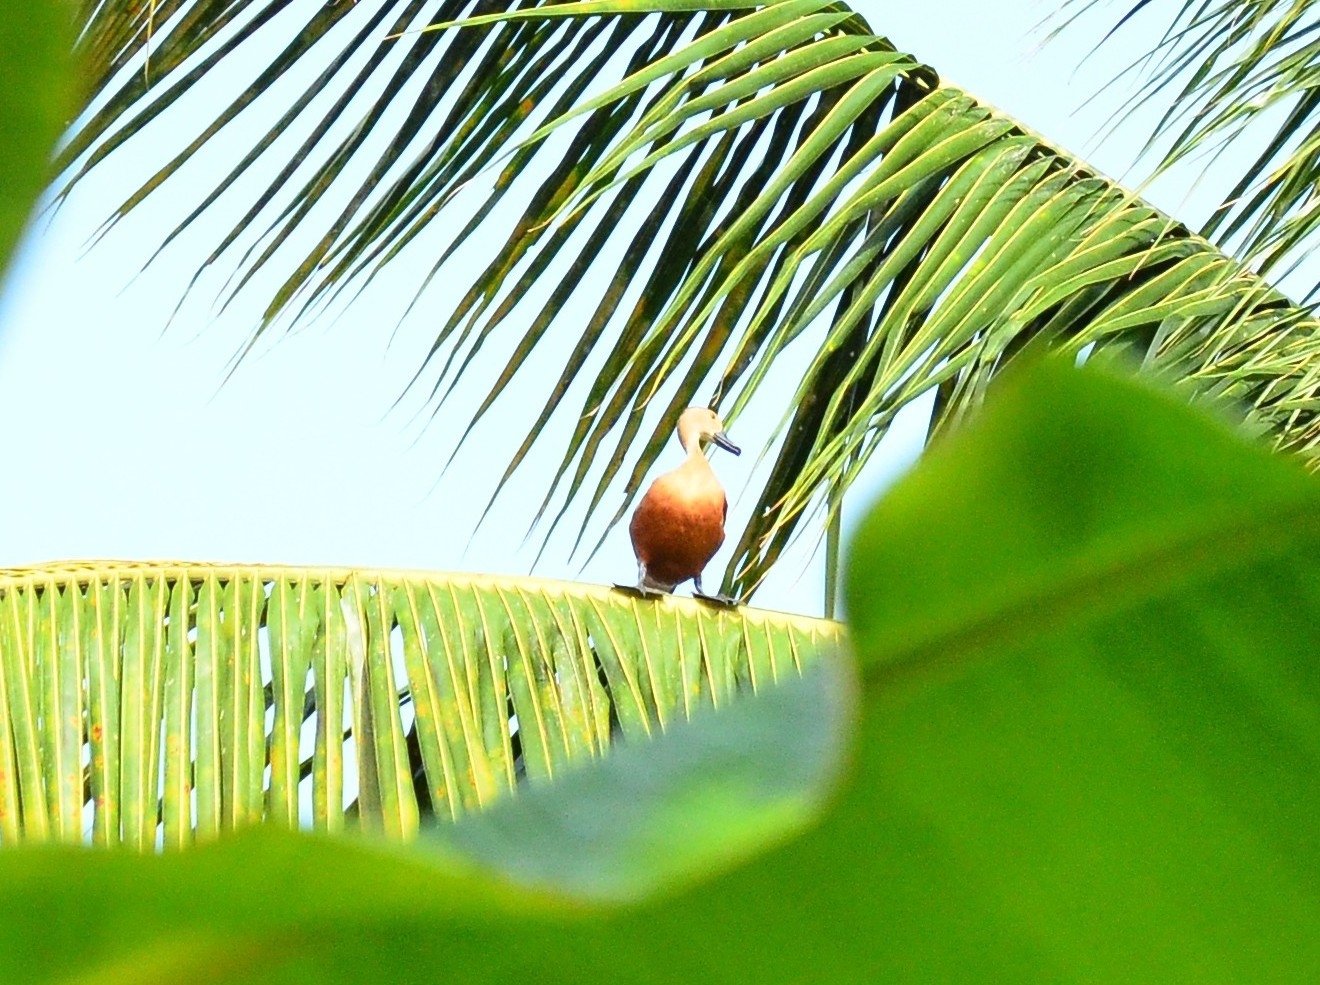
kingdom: Animalia
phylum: Chordata
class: Aves
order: Anseriformes
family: Anatidae
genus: Dendrocygna
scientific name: Dendrocygna javanica
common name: Lesser whistling-duck
